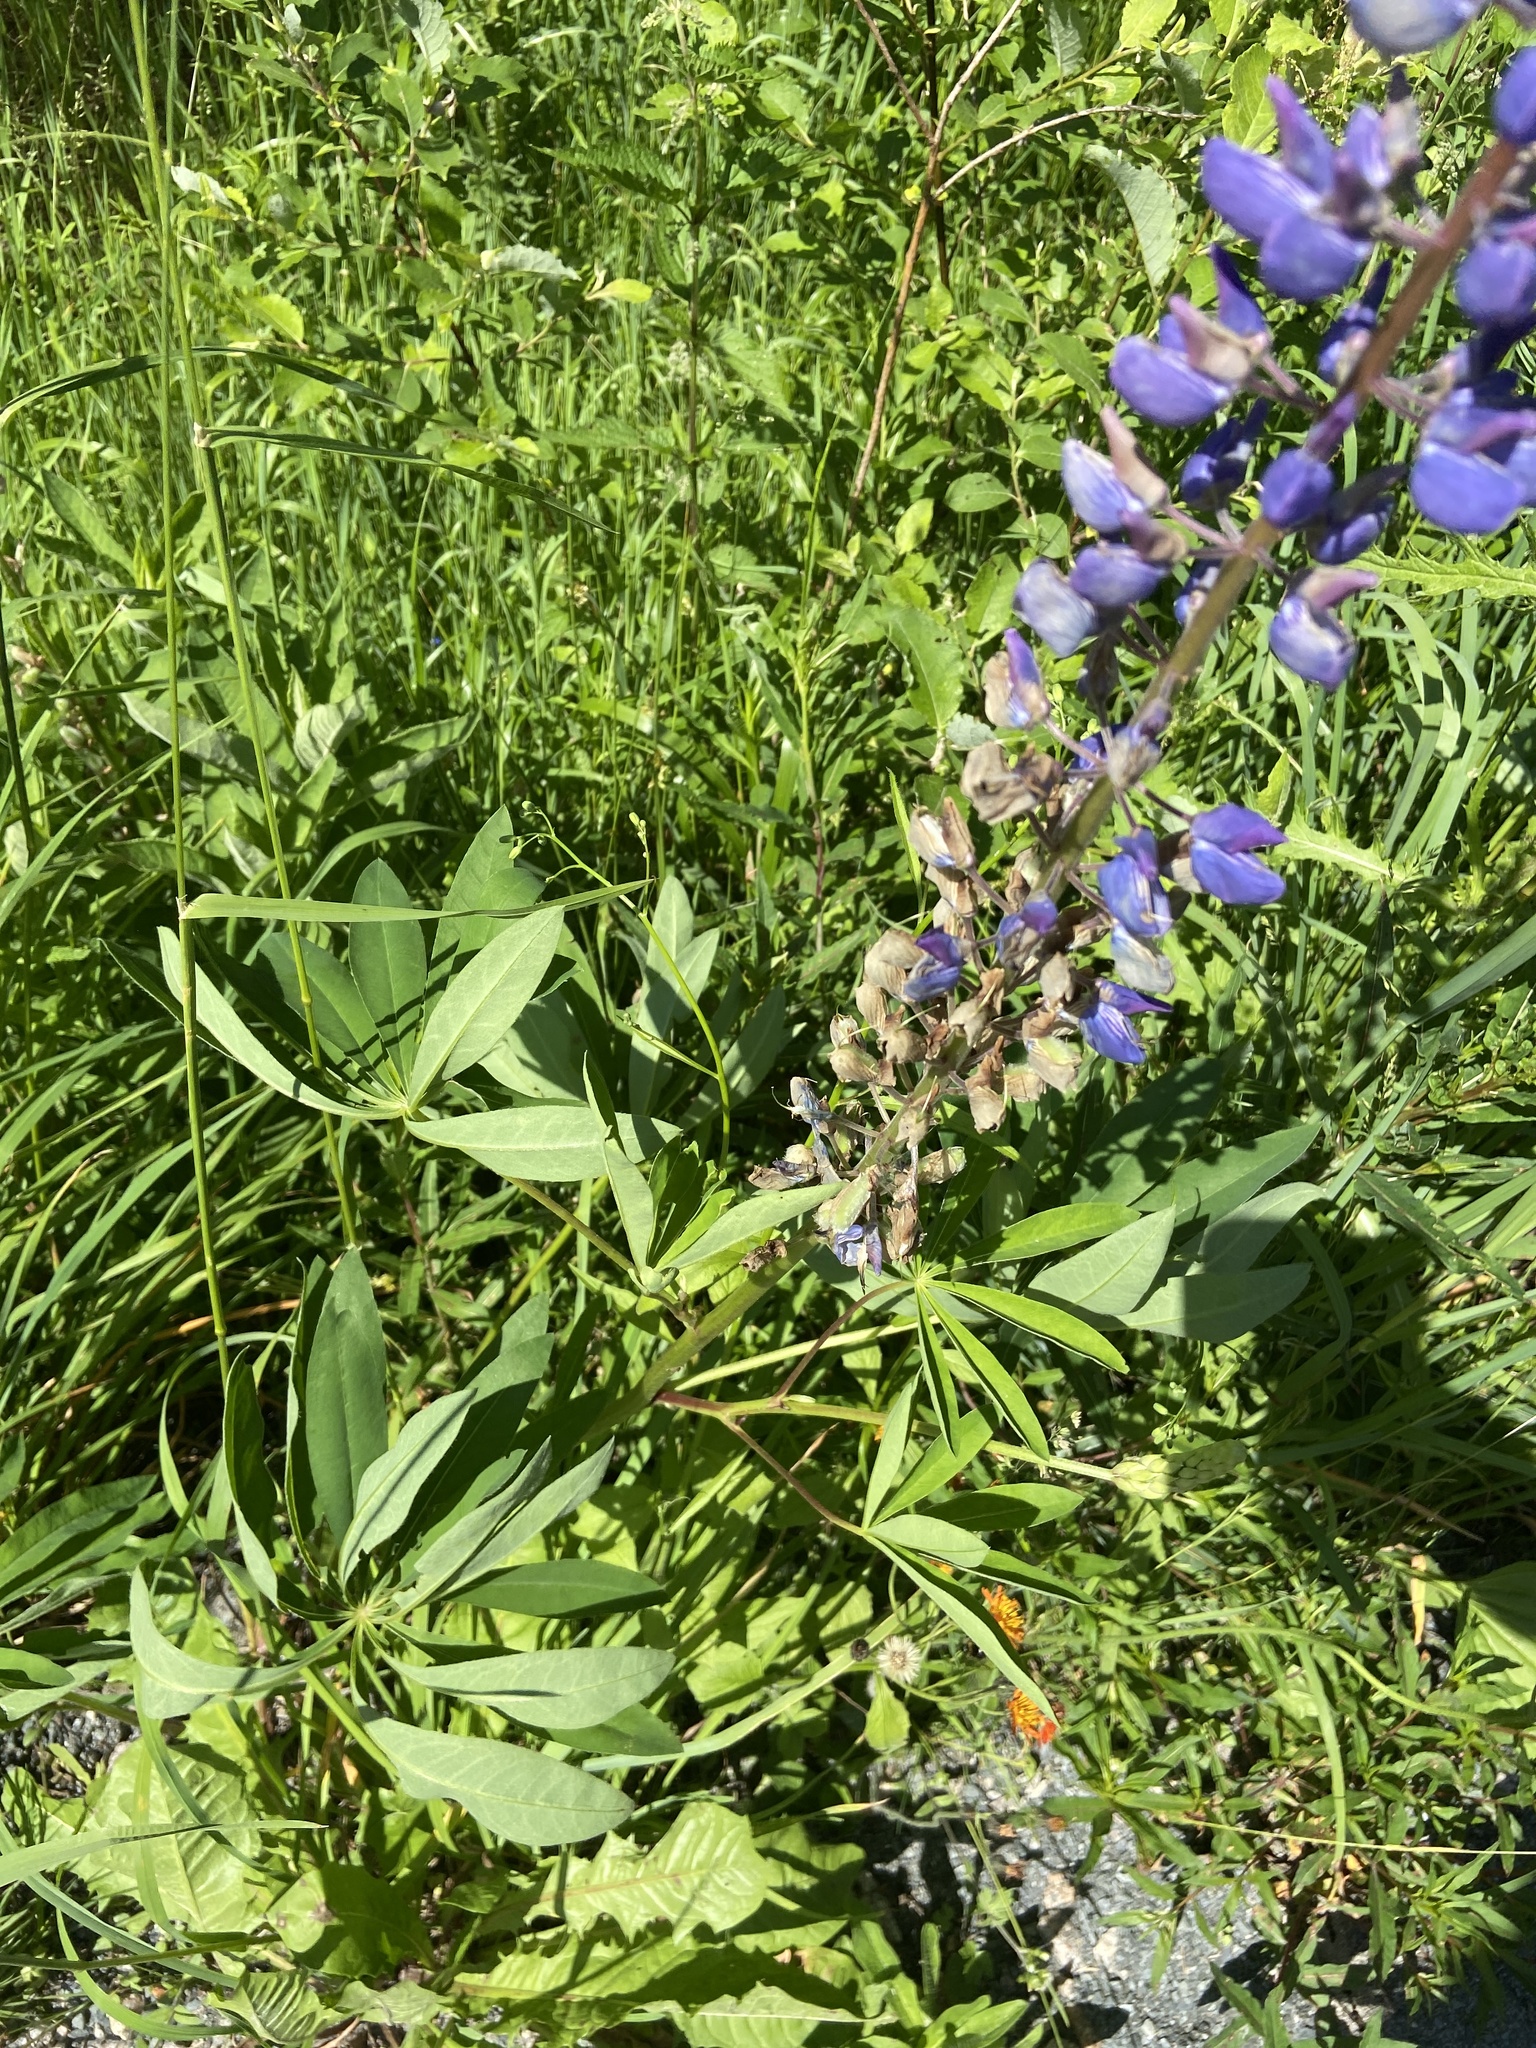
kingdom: Plantae
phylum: Tracheophyta
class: Magnoliopsida
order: Fabales
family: Fabaceae
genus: Lupinus
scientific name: Lupinus polyphyllus
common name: Garden lupin
